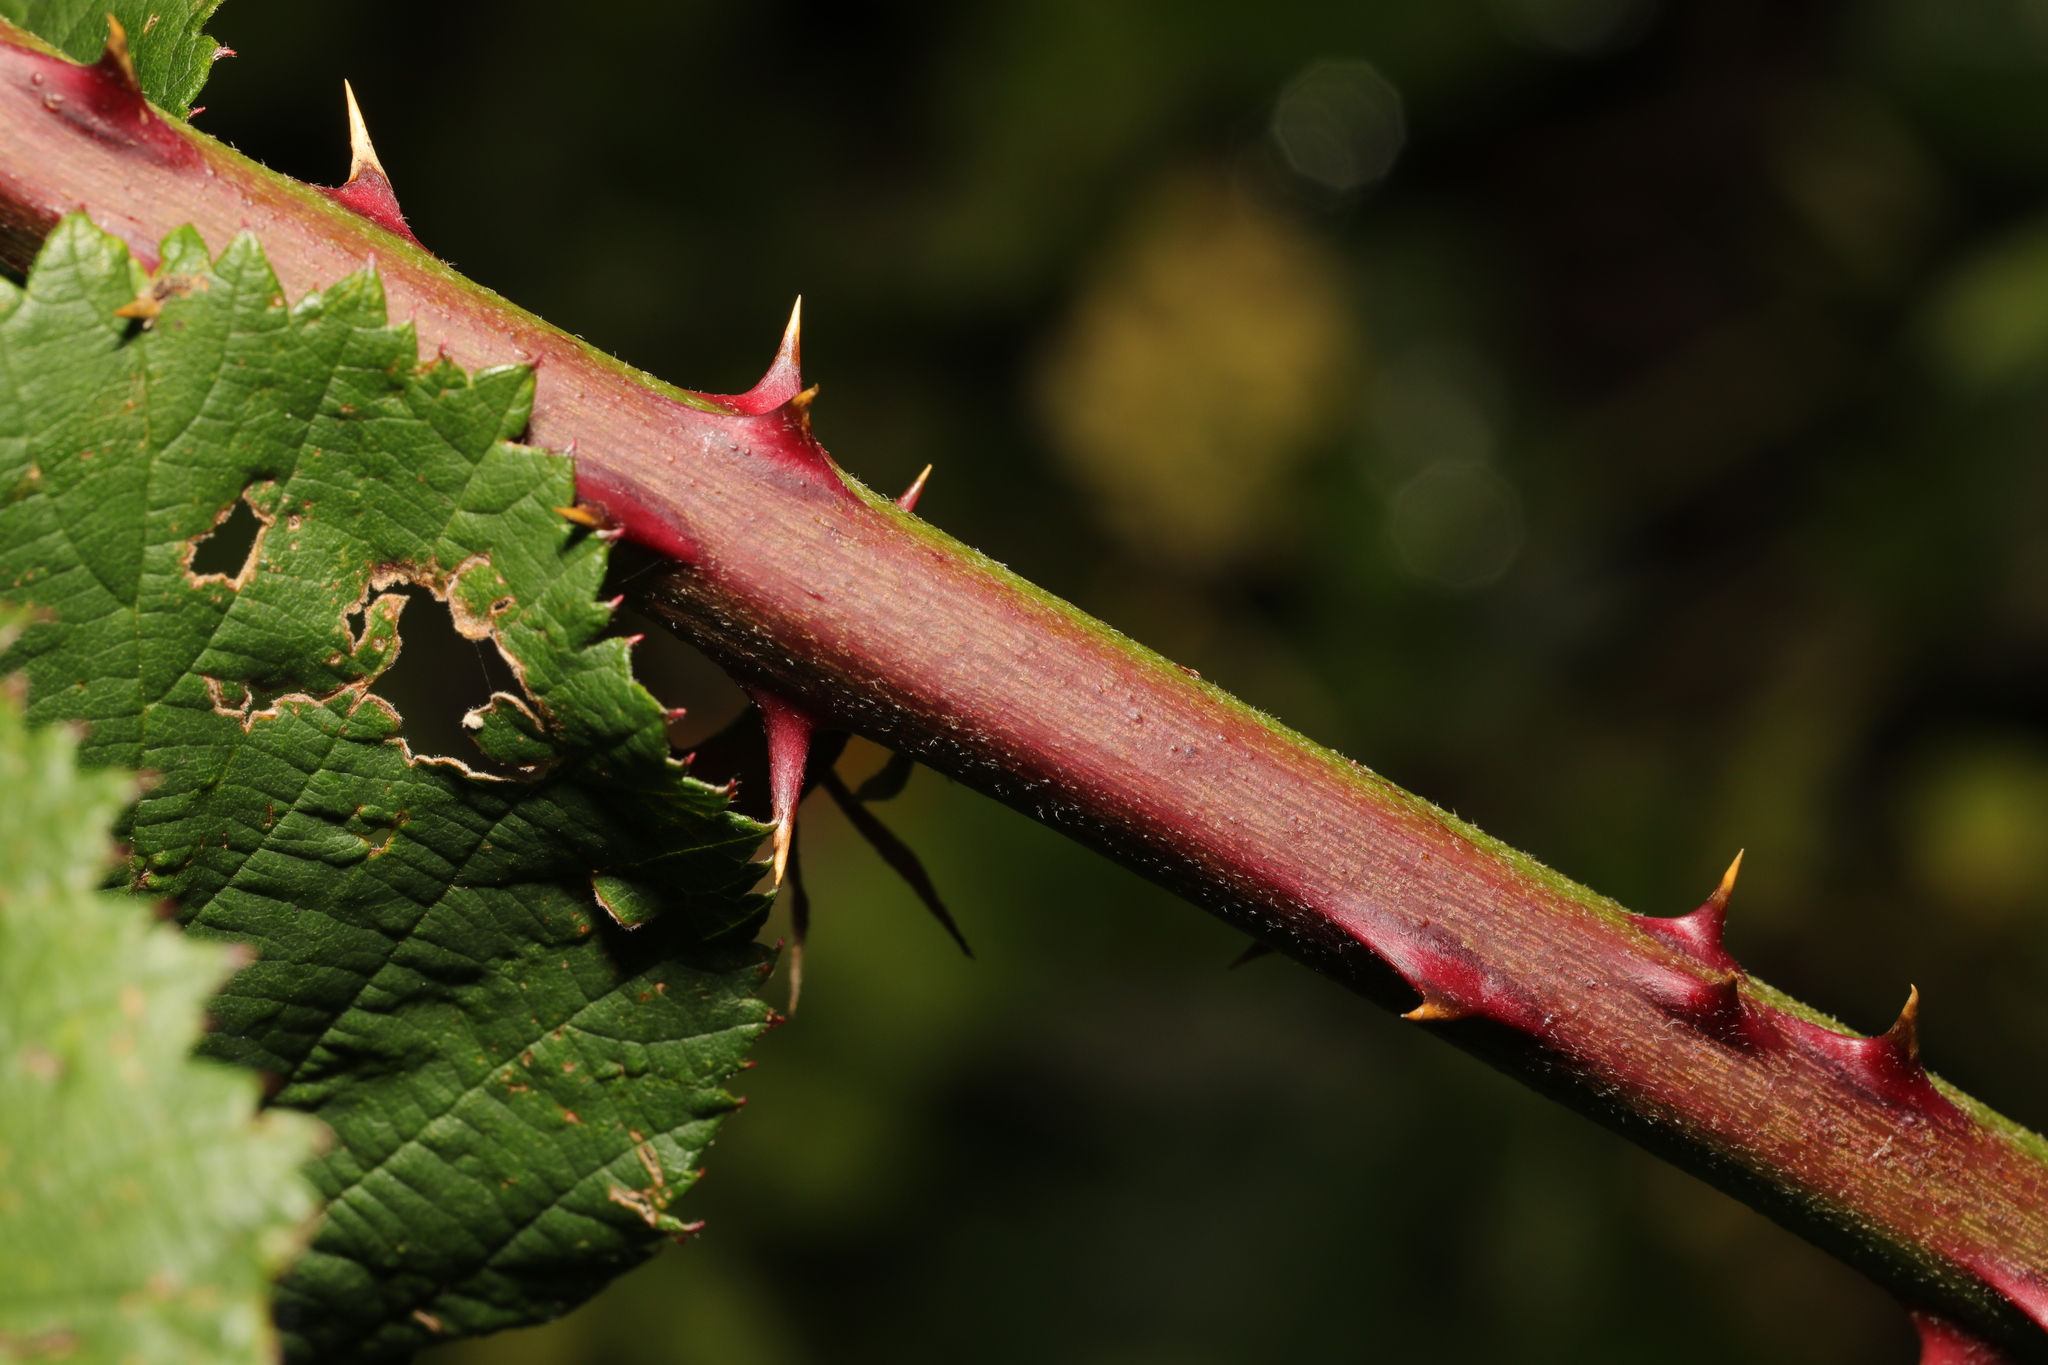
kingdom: Plantae
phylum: Tracheophyta
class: Magnoliopsida
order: Rosales
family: Rosaceae
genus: Rubus
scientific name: Rubus armeniacus
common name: Himalayan blackberry
